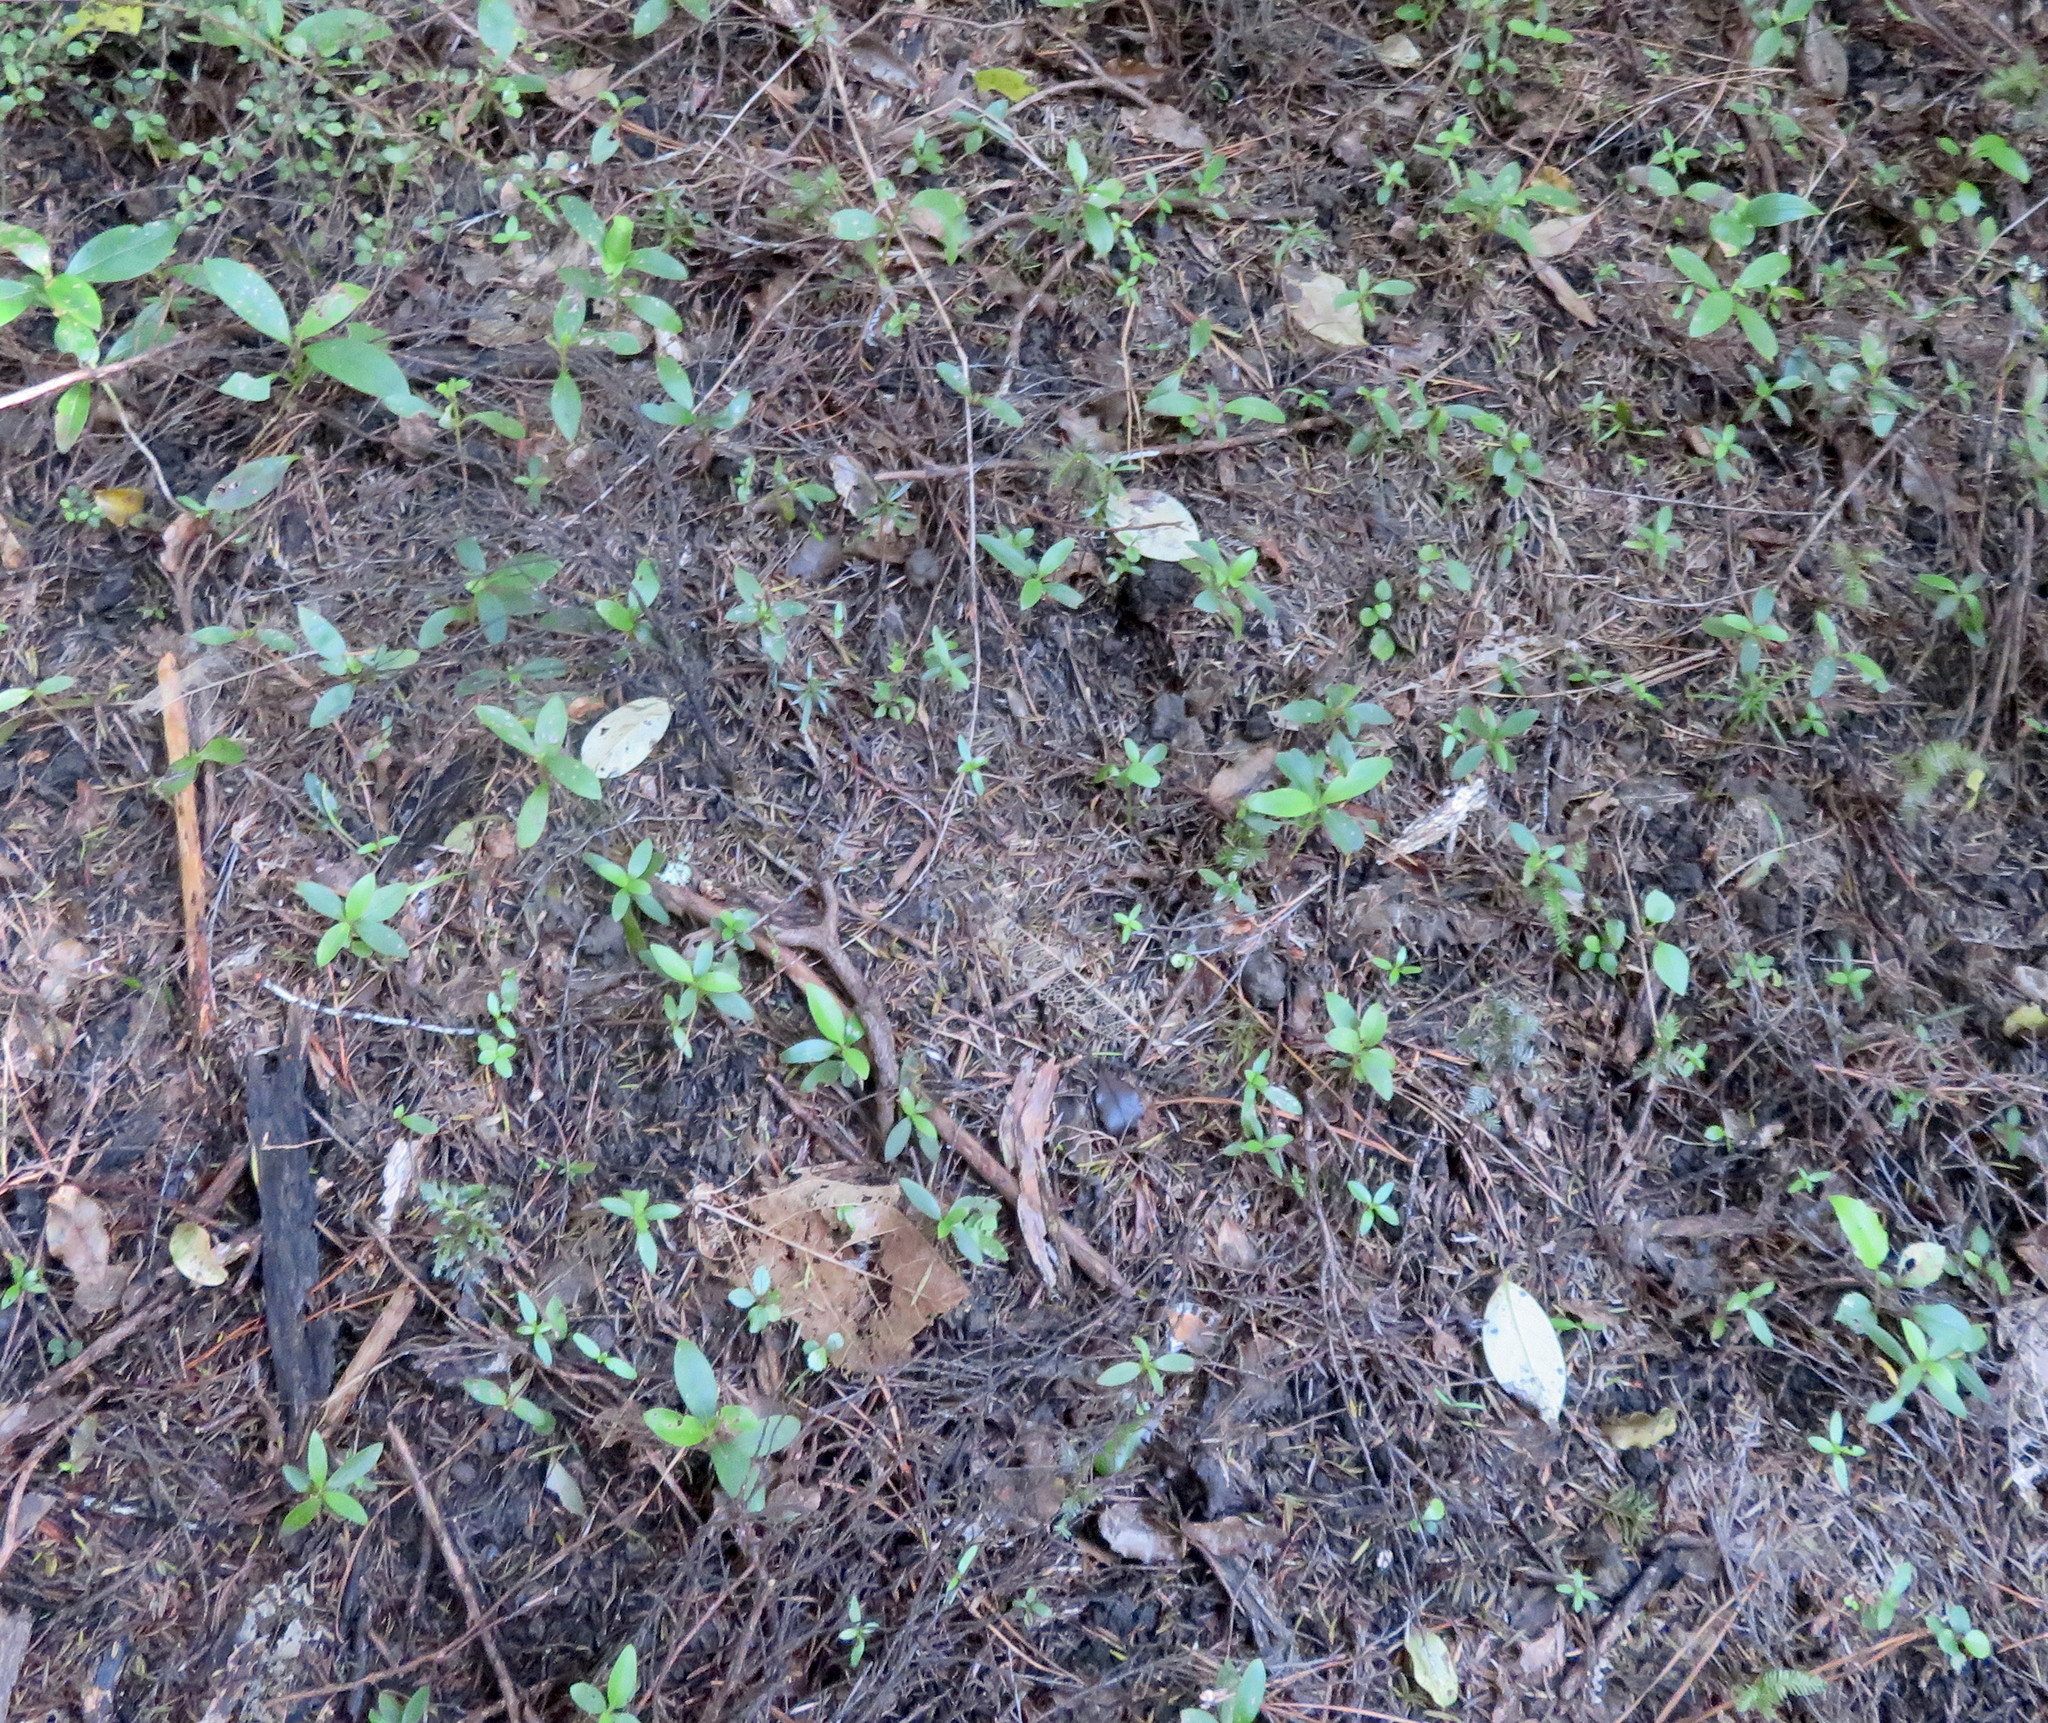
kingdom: Plantae
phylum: Tracheophyta
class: Pinopsida
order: Pinales
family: Phyllocladaceae
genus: Phyllocladus
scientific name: Phyllocladus trichomanoides
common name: Celery pine
